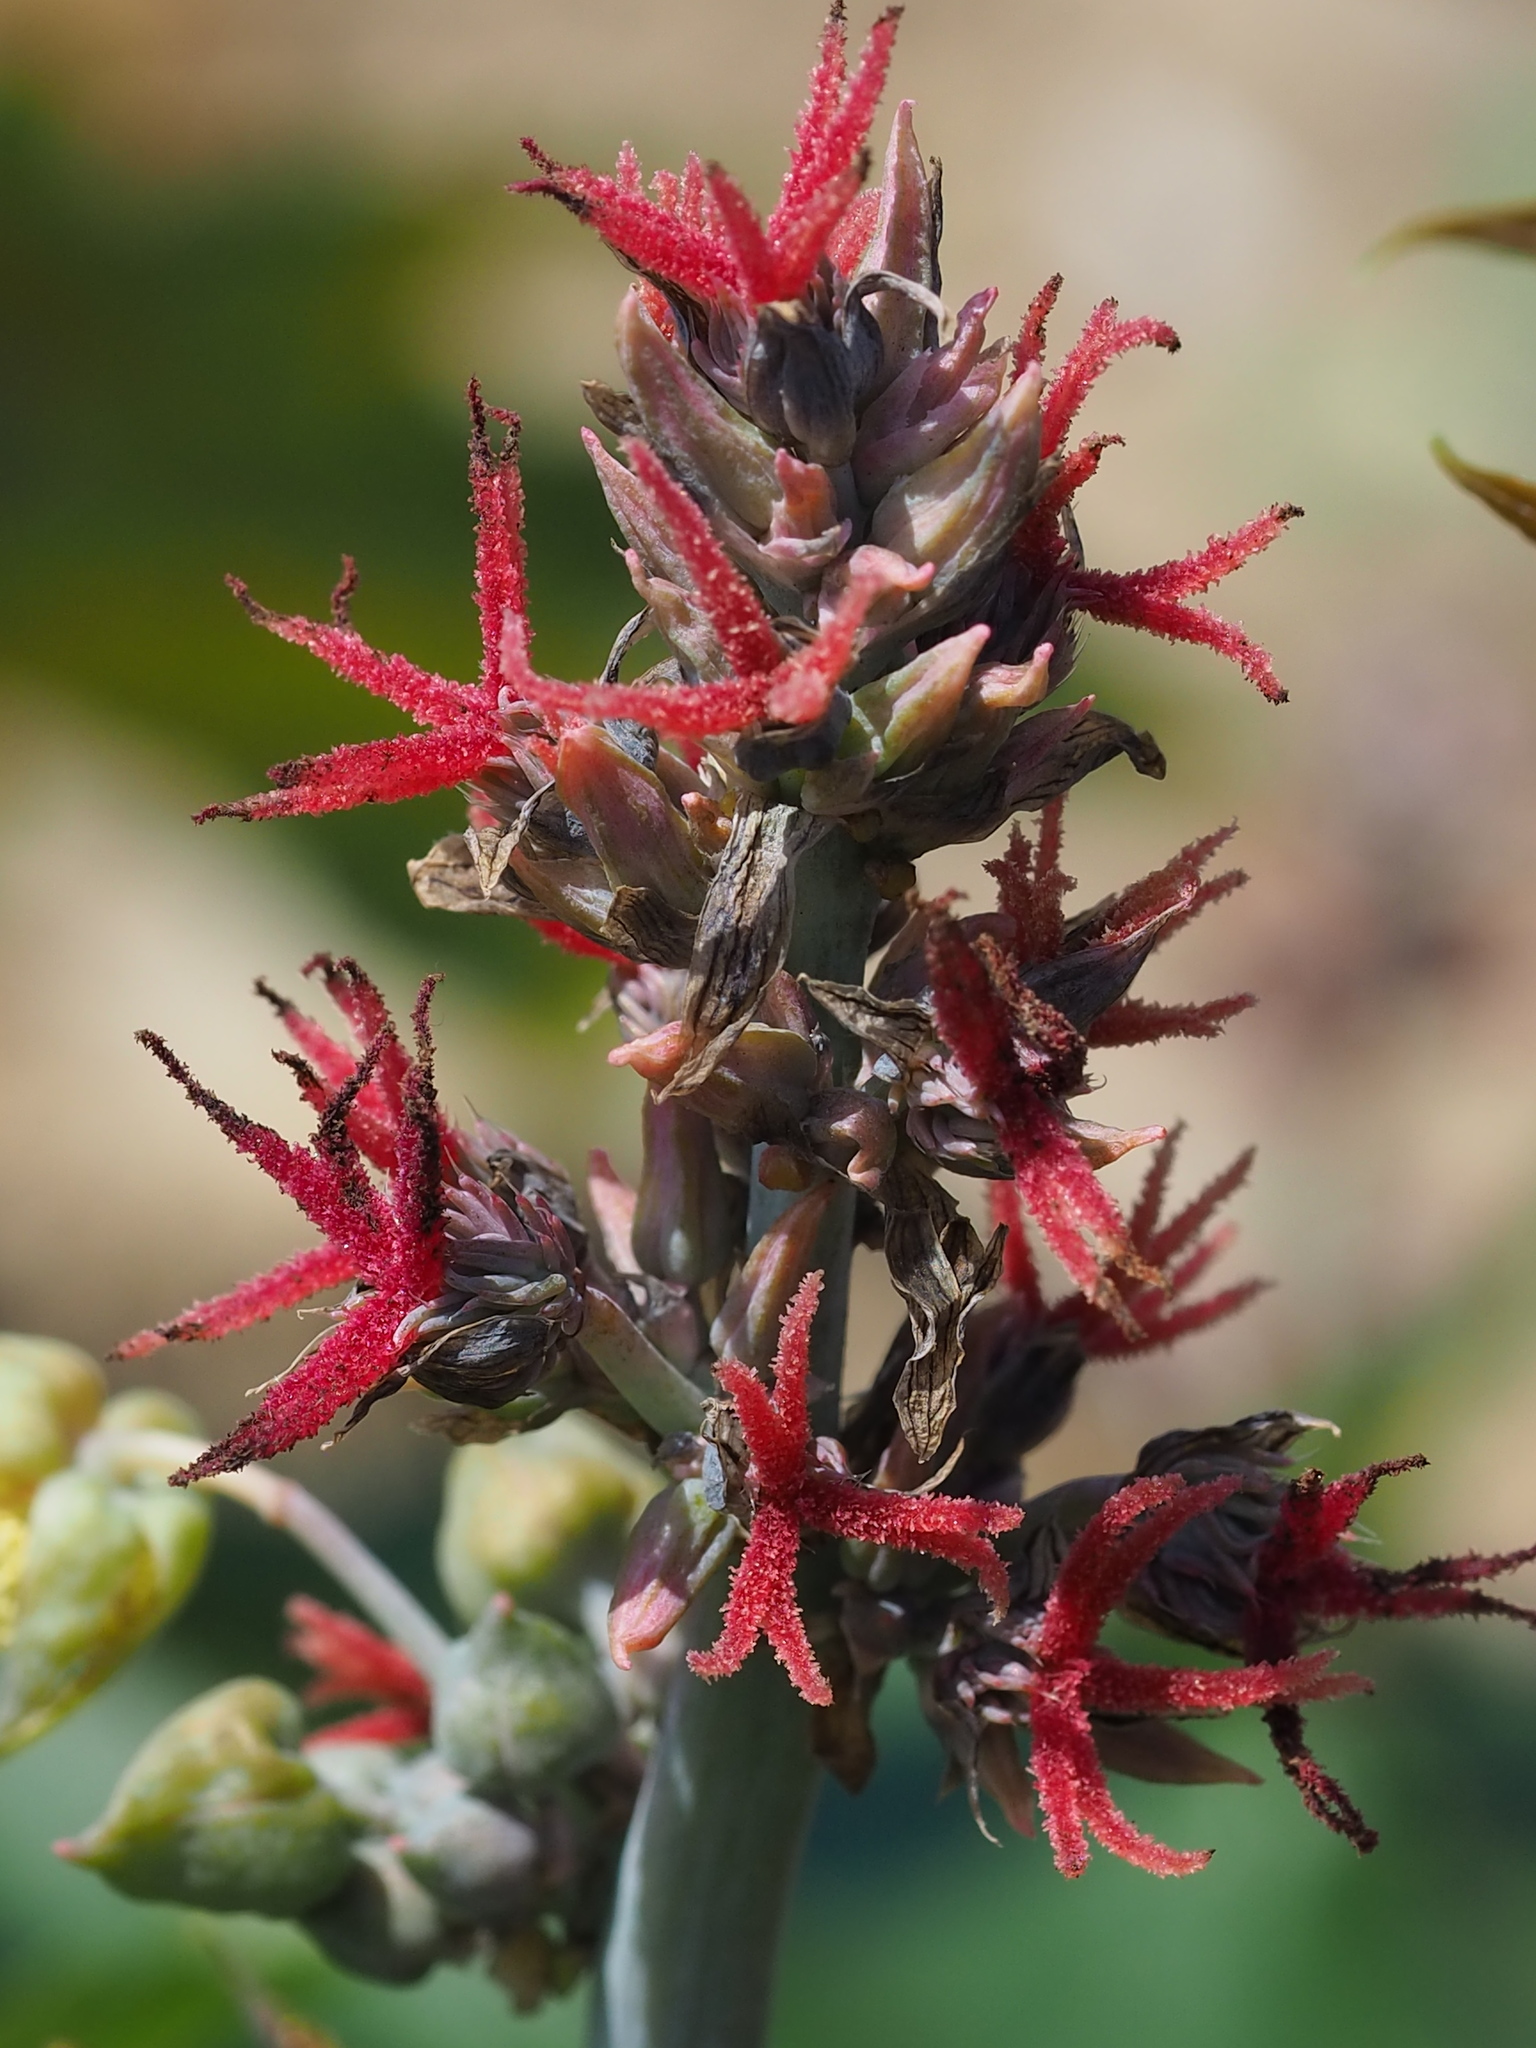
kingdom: Plantae
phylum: Tracheophyta
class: Magnoliopsida
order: Malpighiales
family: Euphorbiaceae
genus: Ricinus
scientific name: Ricinus communis
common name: Castor-oil-plant
